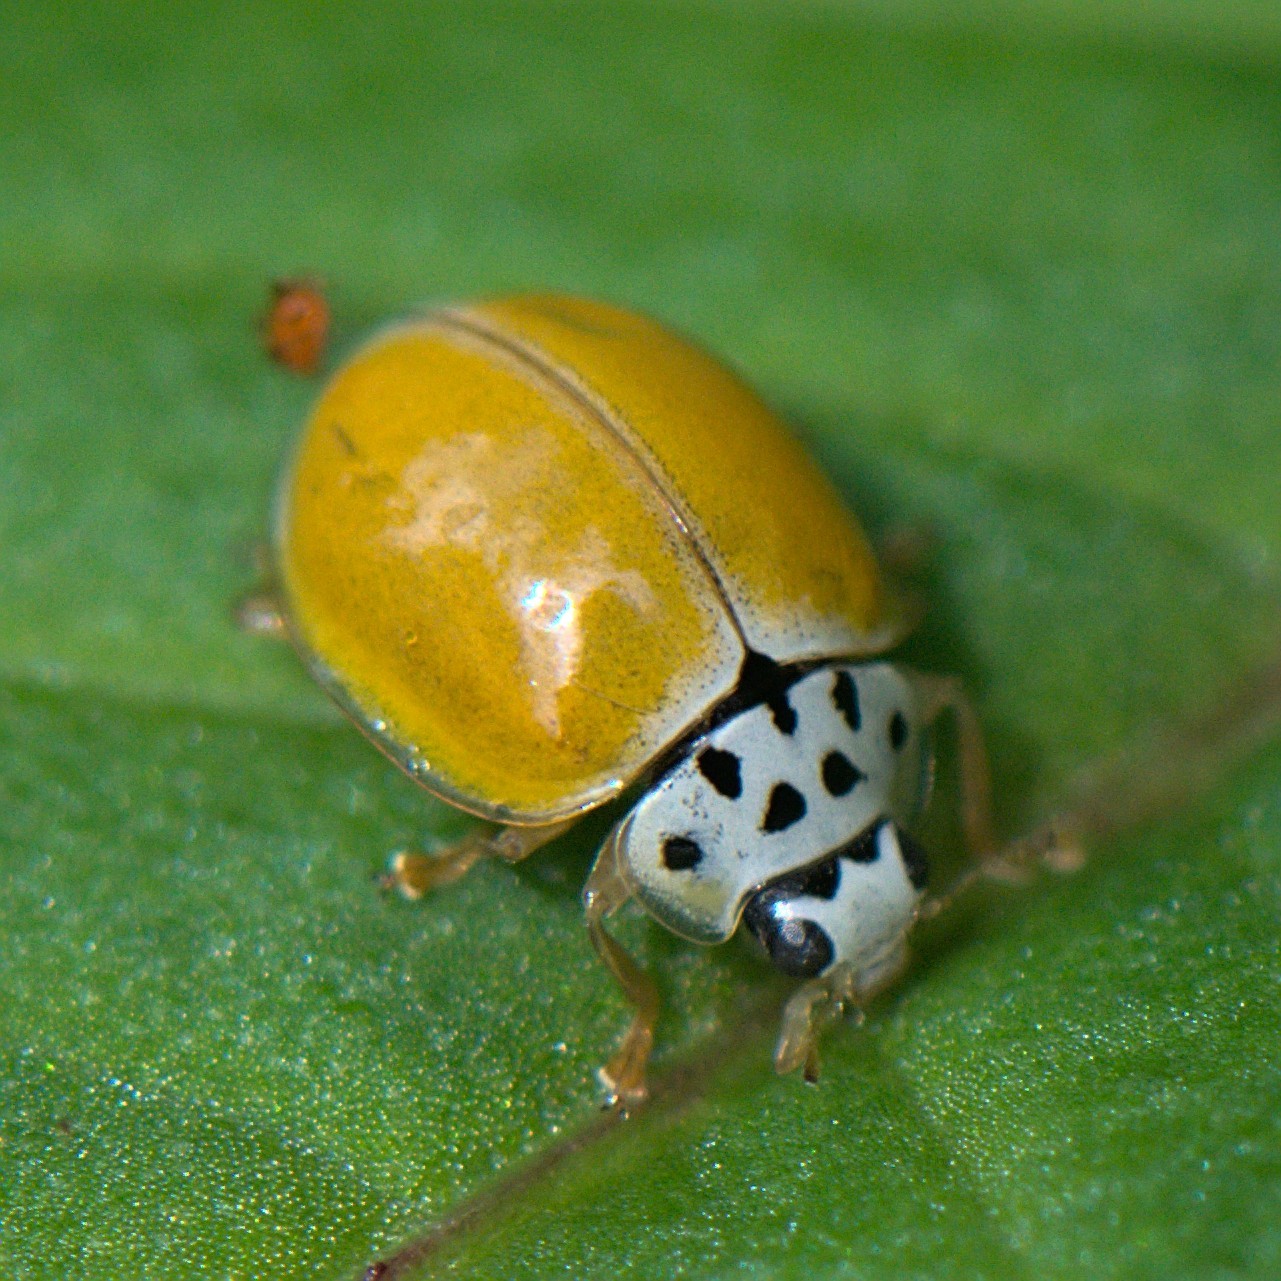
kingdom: Animalia
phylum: Arthropoda
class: Insecta
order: Coleoptera
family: Coccinellidae
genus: Oenopia
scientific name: Oenopia
